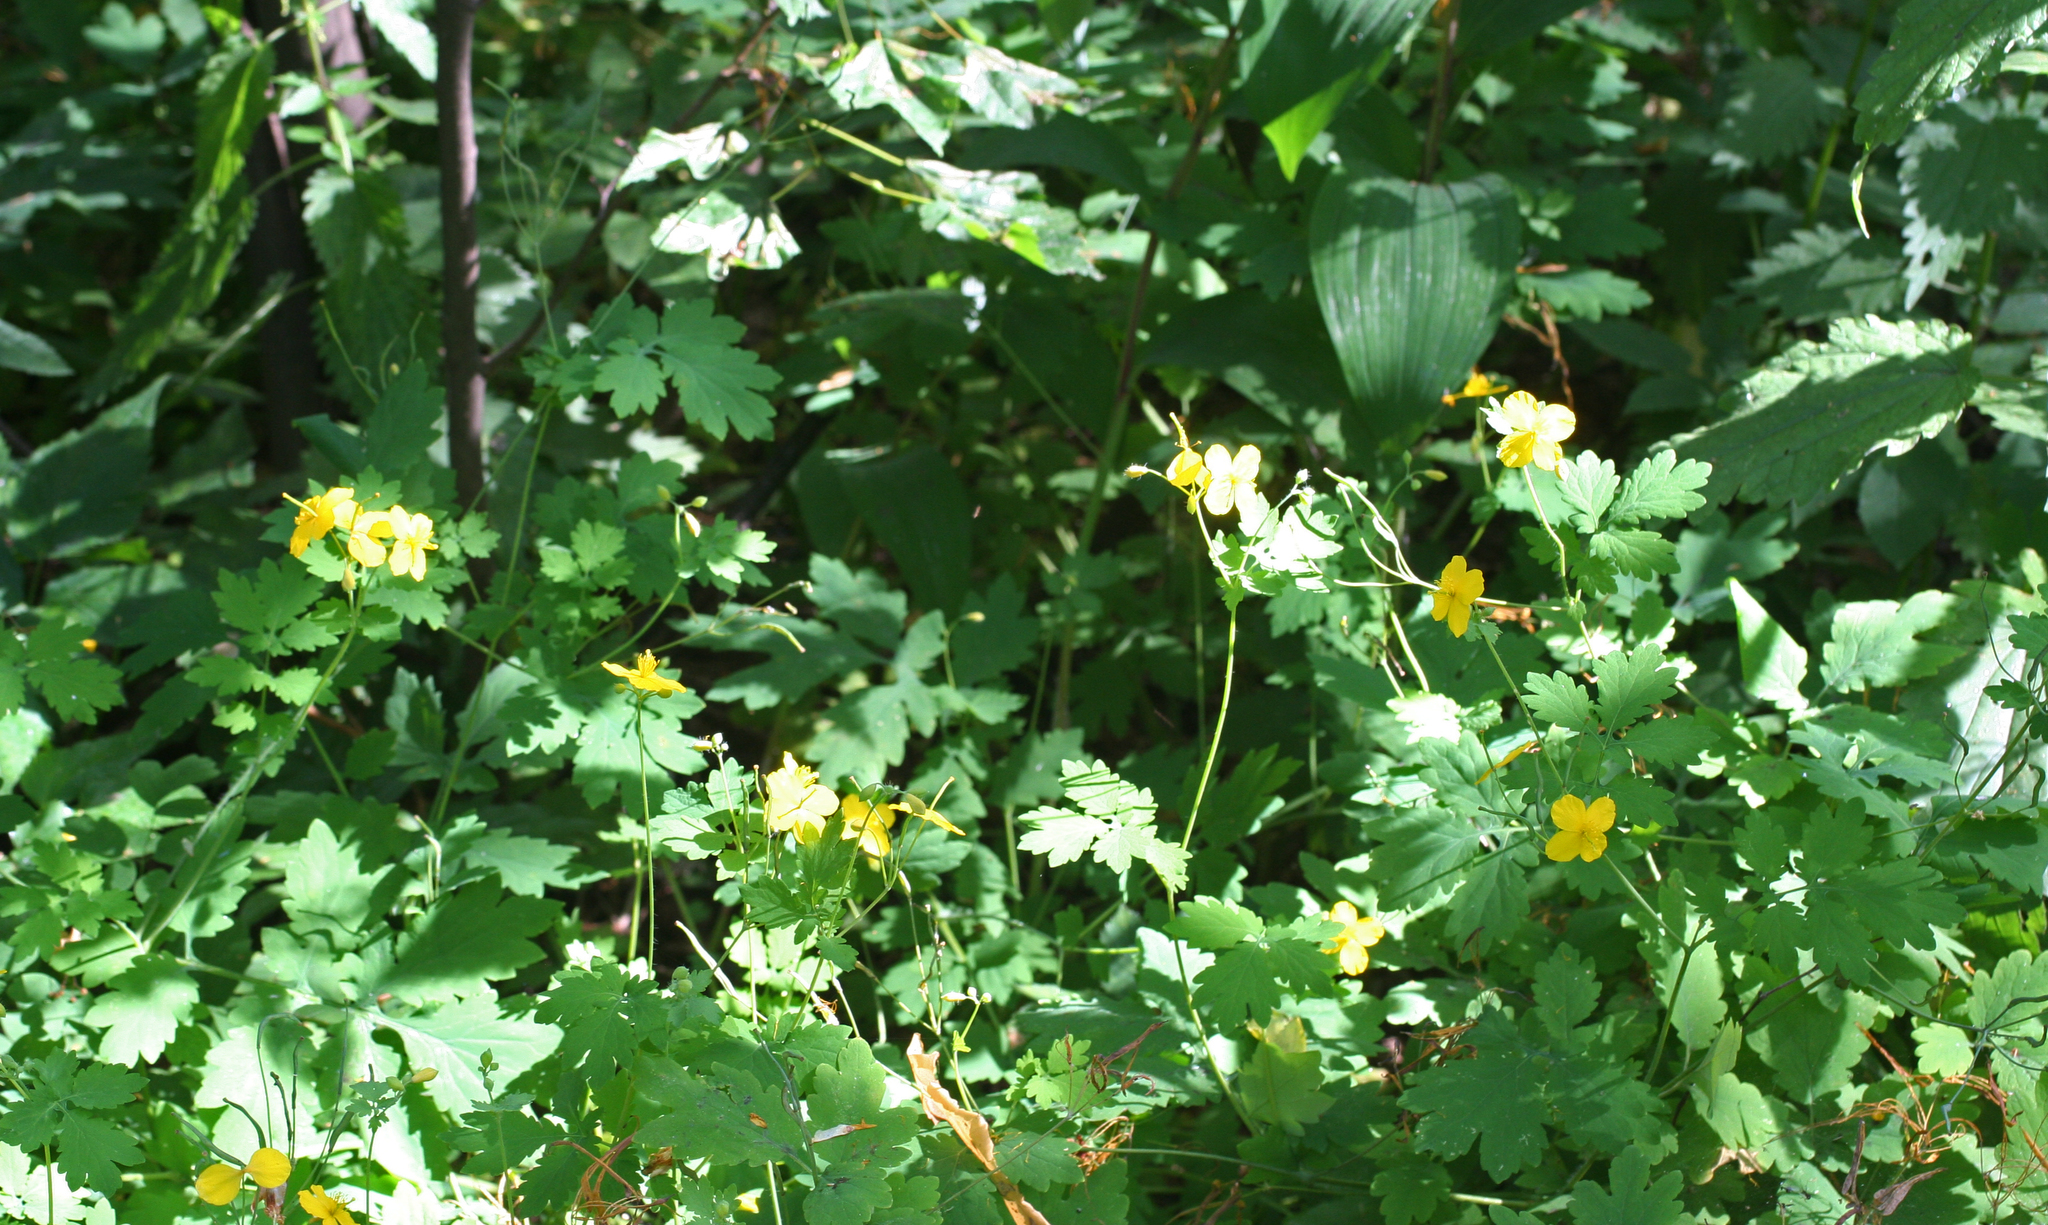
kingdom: Plantae
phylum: Tracheophyta
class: Magnoliopsida
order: Ranunculales
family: Papaveraceae
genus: Chelidonium
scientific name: Chelidonium majus
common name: Greater celandine
